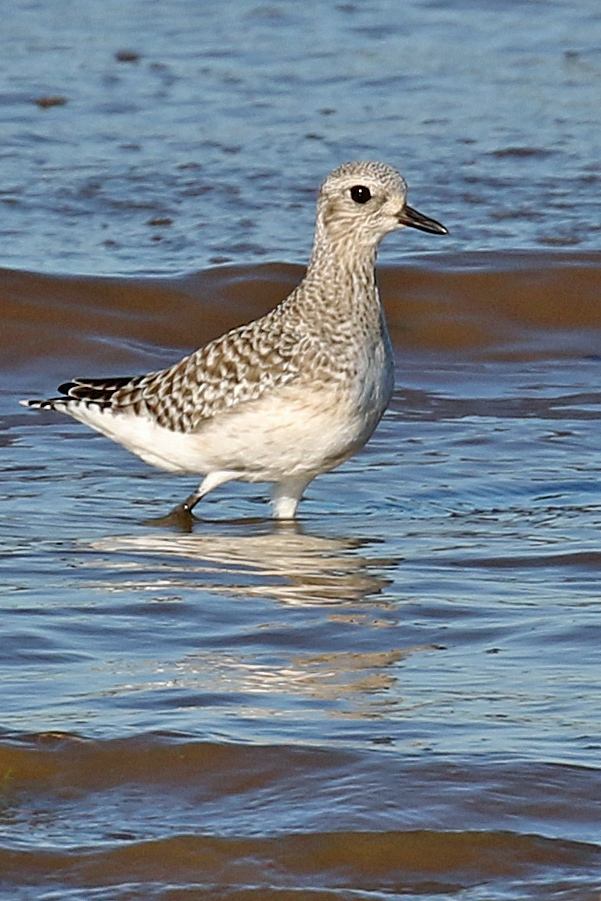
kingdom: Animalia
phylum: Chordata
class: Aves
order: Charadriiformes
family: Charadriidae
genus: Pluvialis
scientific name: Pluvialis squatarola
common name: Grey plover
